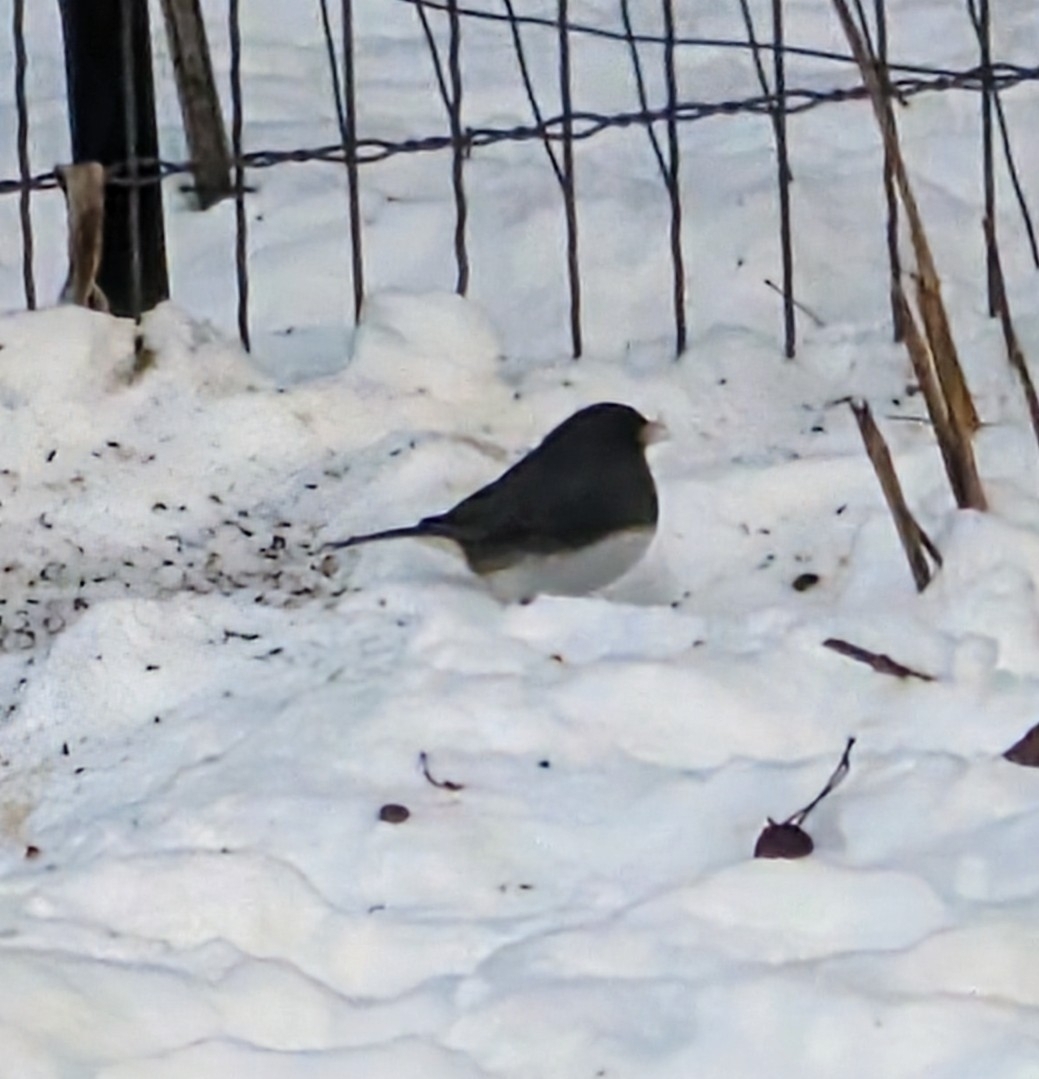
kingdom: Animalia
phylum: Chordata
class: Aves
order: Passeriformes
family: Passerellidae
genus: Junco
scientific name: Junco hyemalis
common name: Dark-eyed junco
